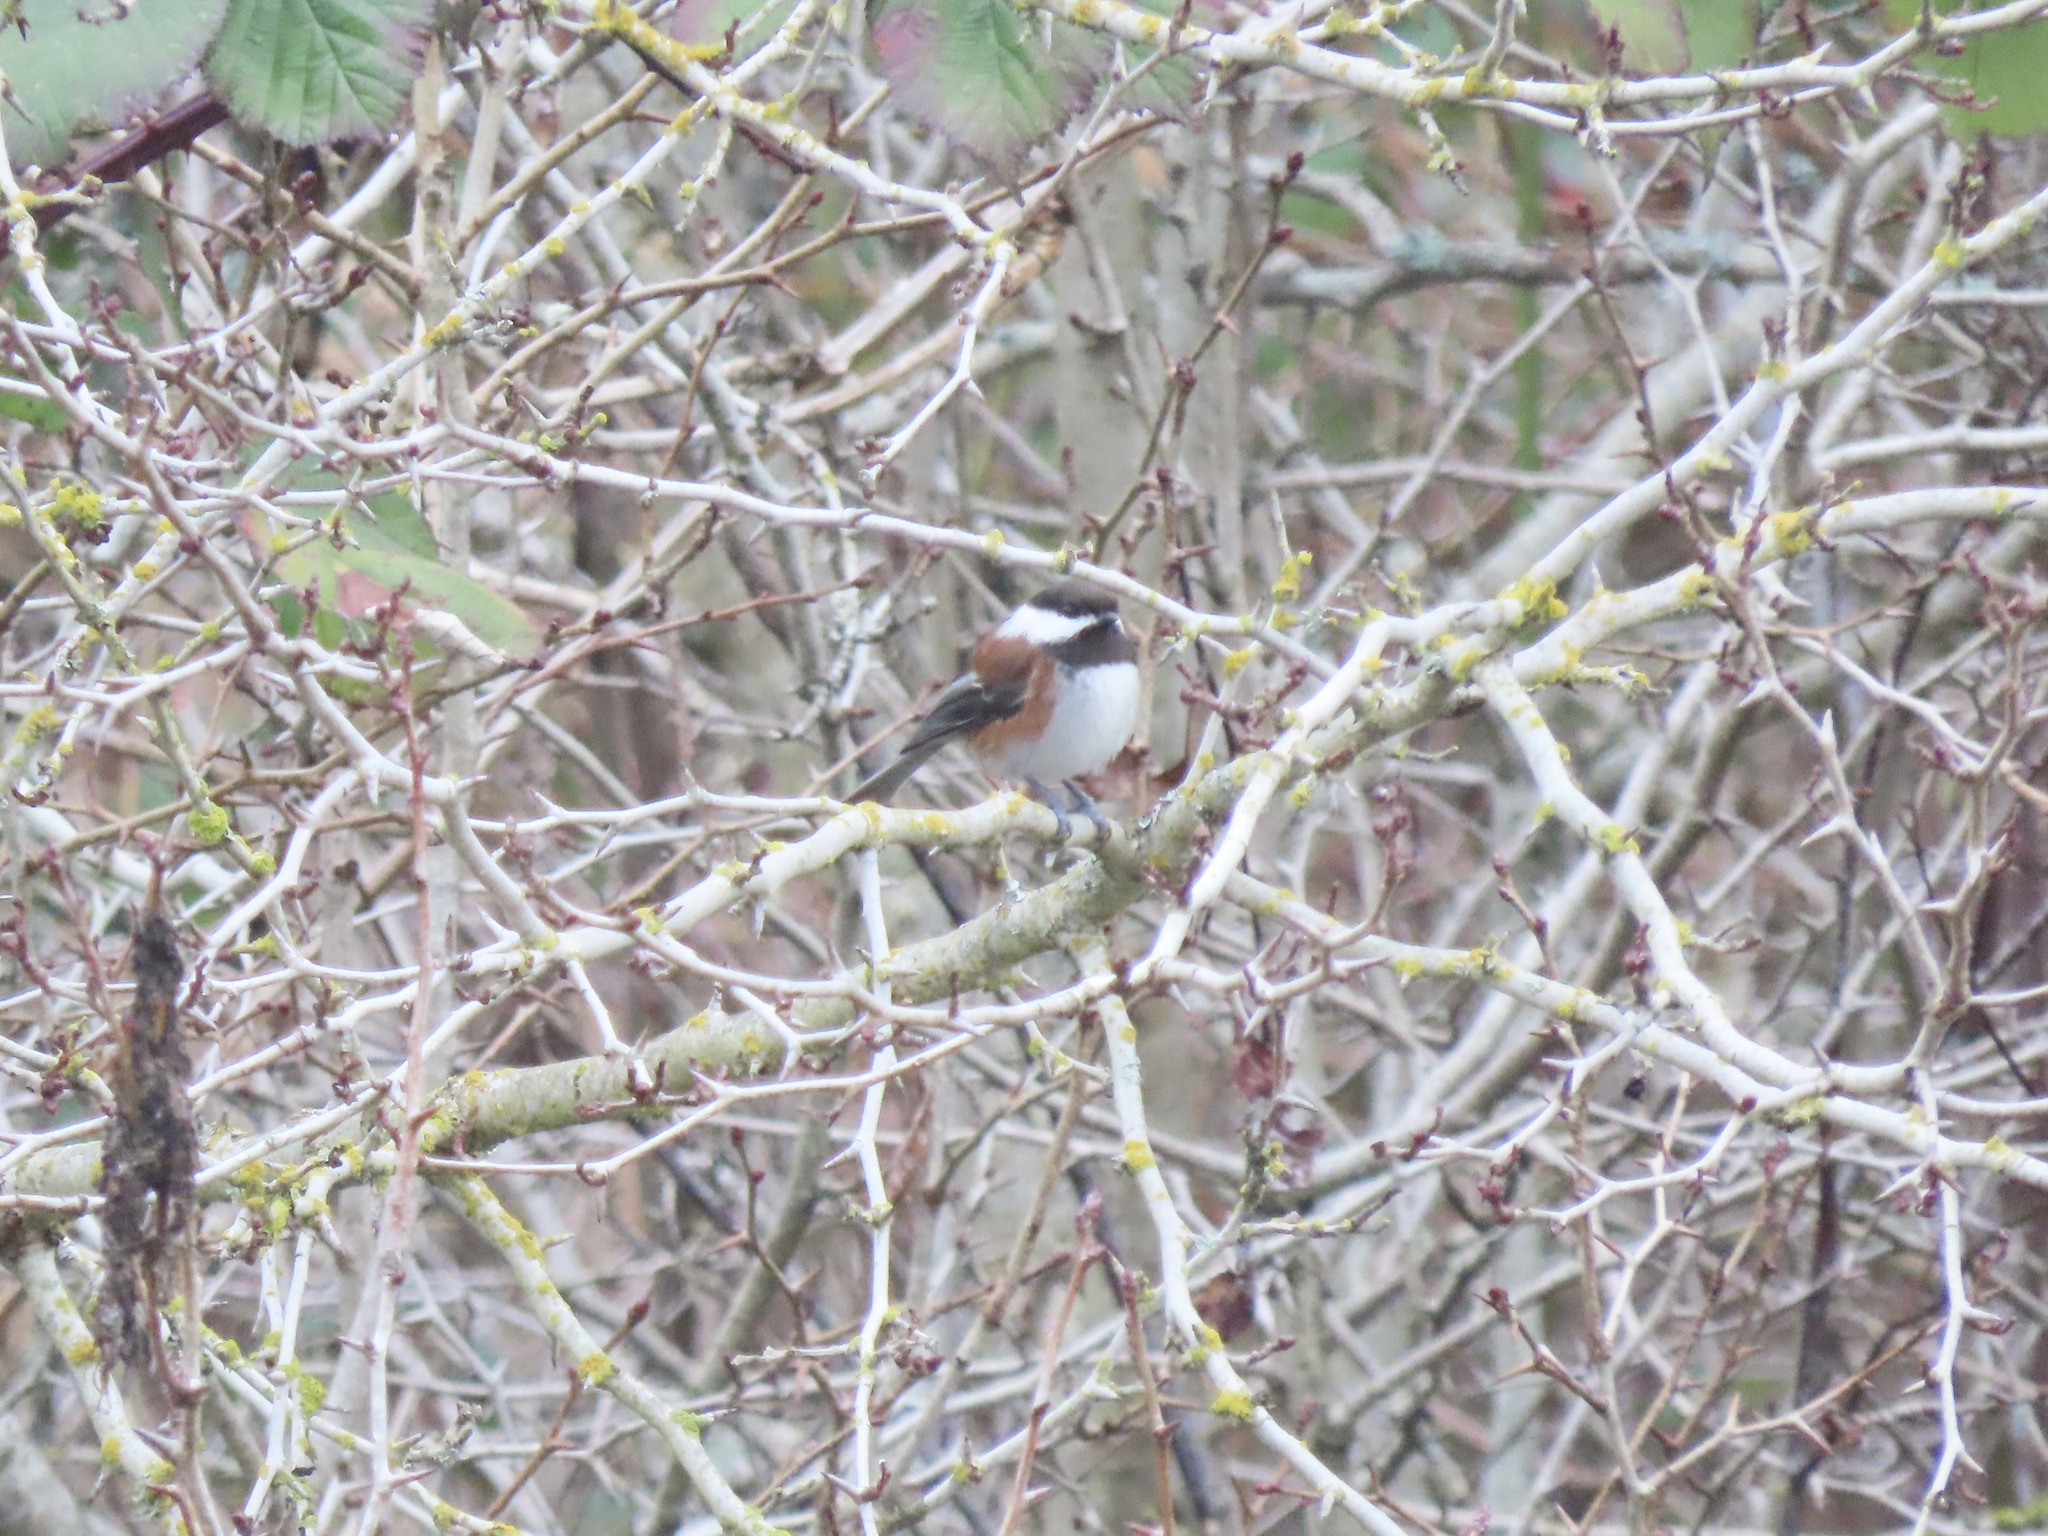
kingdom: Animalia
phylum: Chordata
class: Aves
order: Passeriformes
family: Paridae
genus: Poecile
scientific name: Poecile rufescens
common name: Chestnut-backed chickadee
